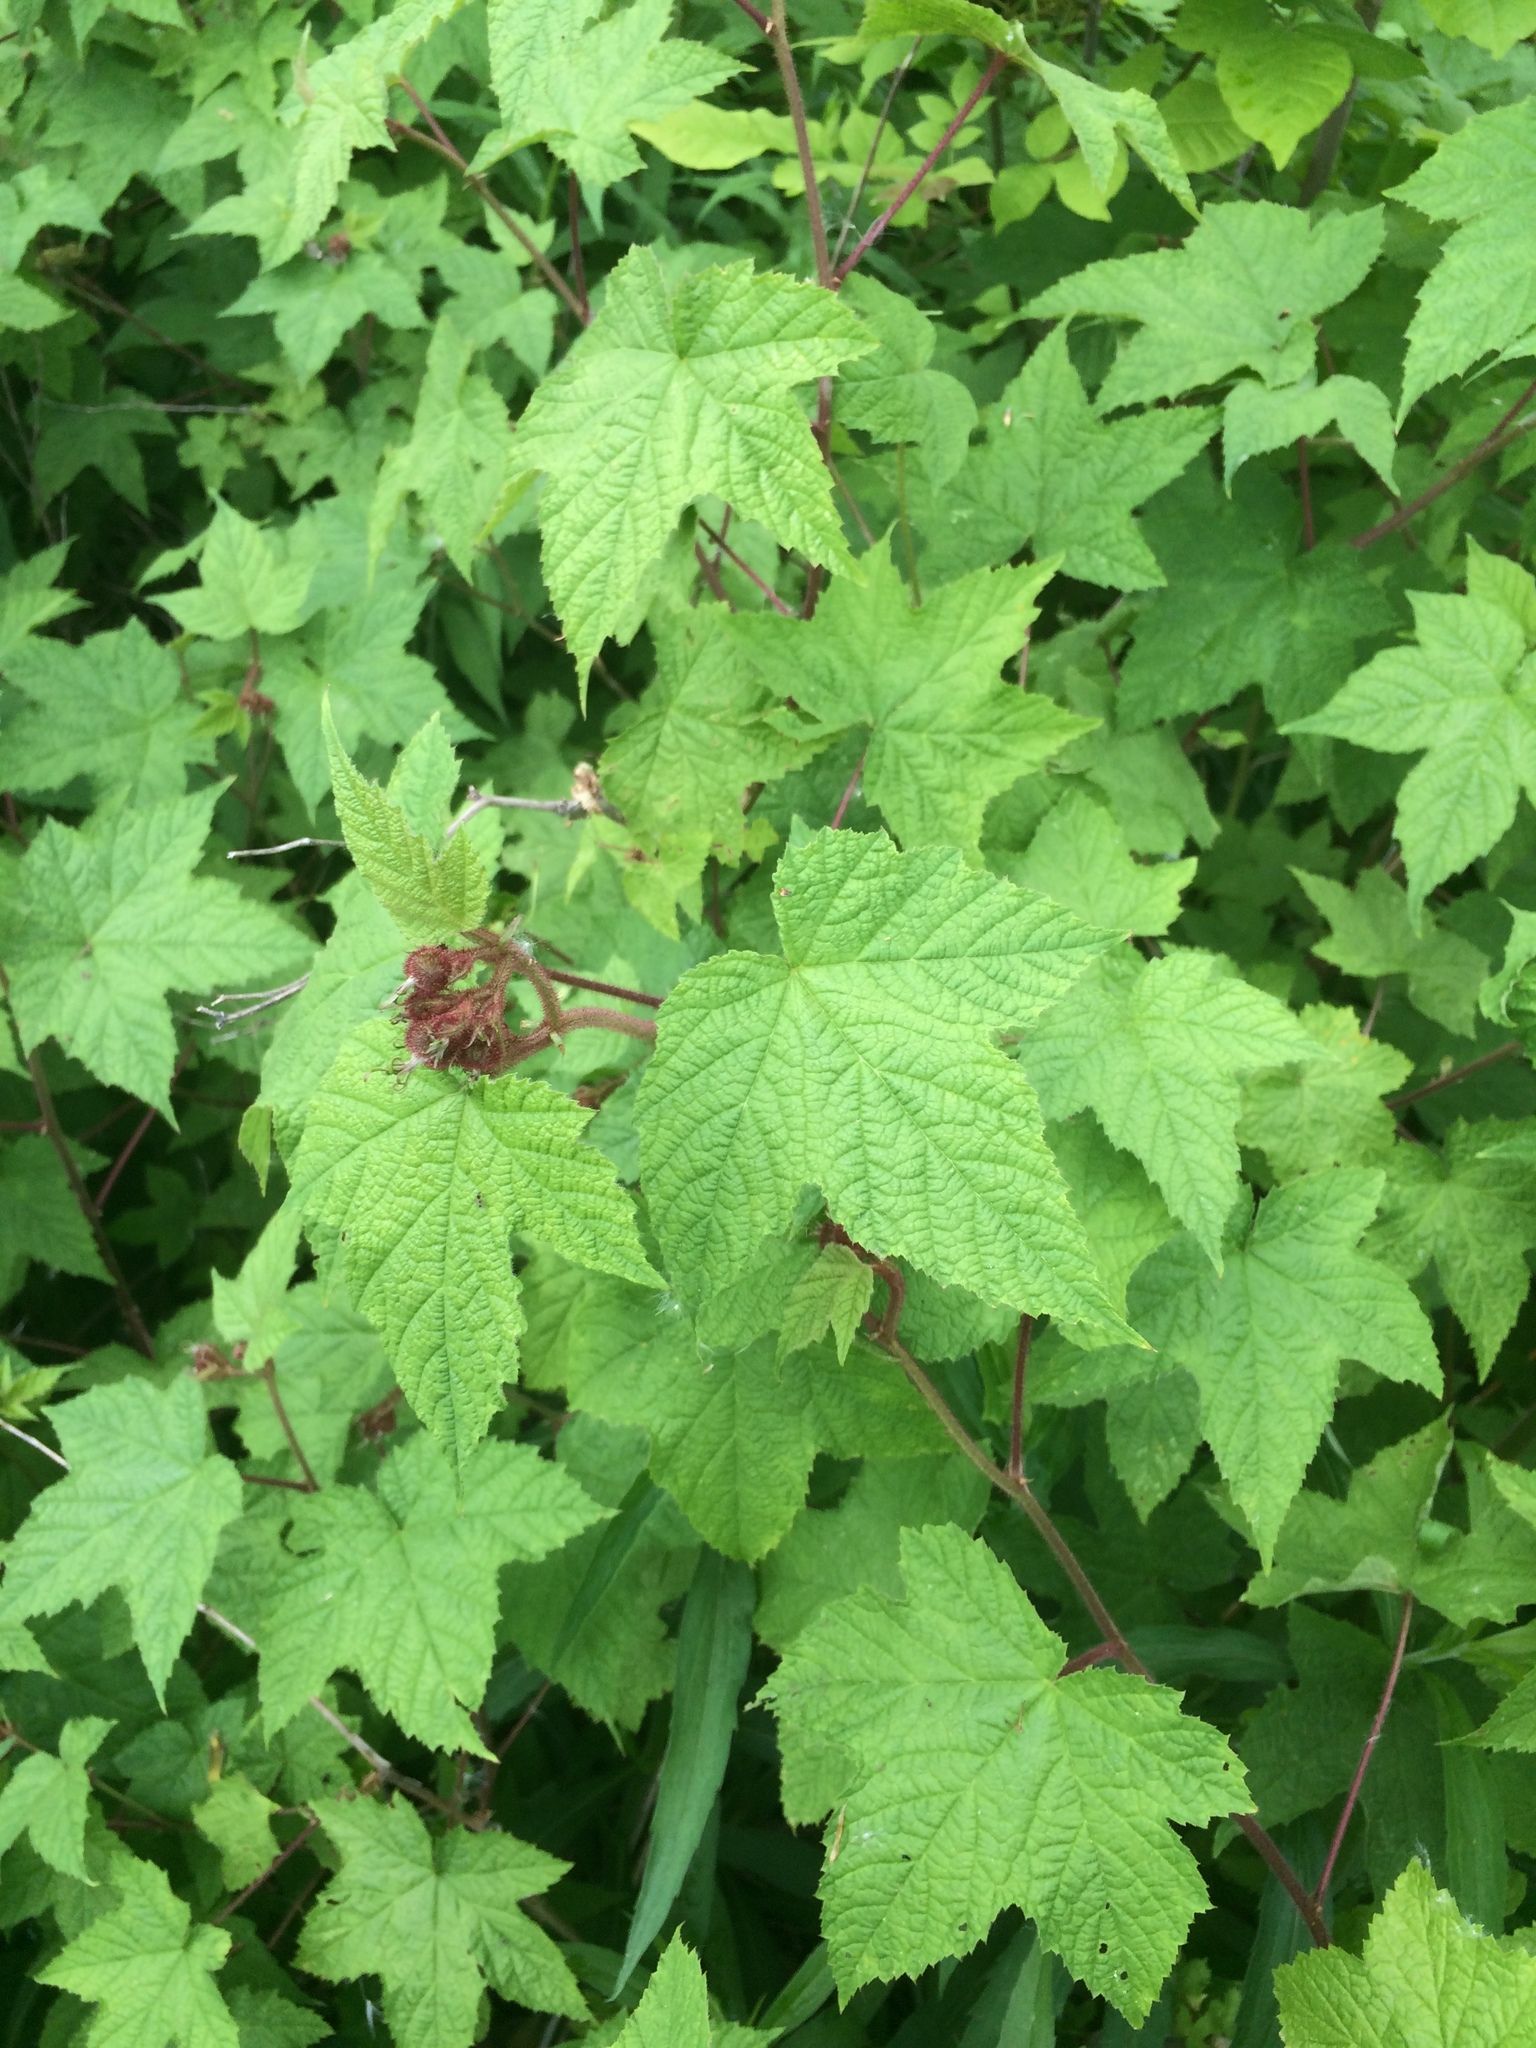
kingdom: Plantae
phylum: Tracheophyta
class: Magnoliopsida
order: Rosales
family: Rosaceae
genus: Rubus
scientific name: Rubus odoratus
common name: Purple-flowered raspberry
